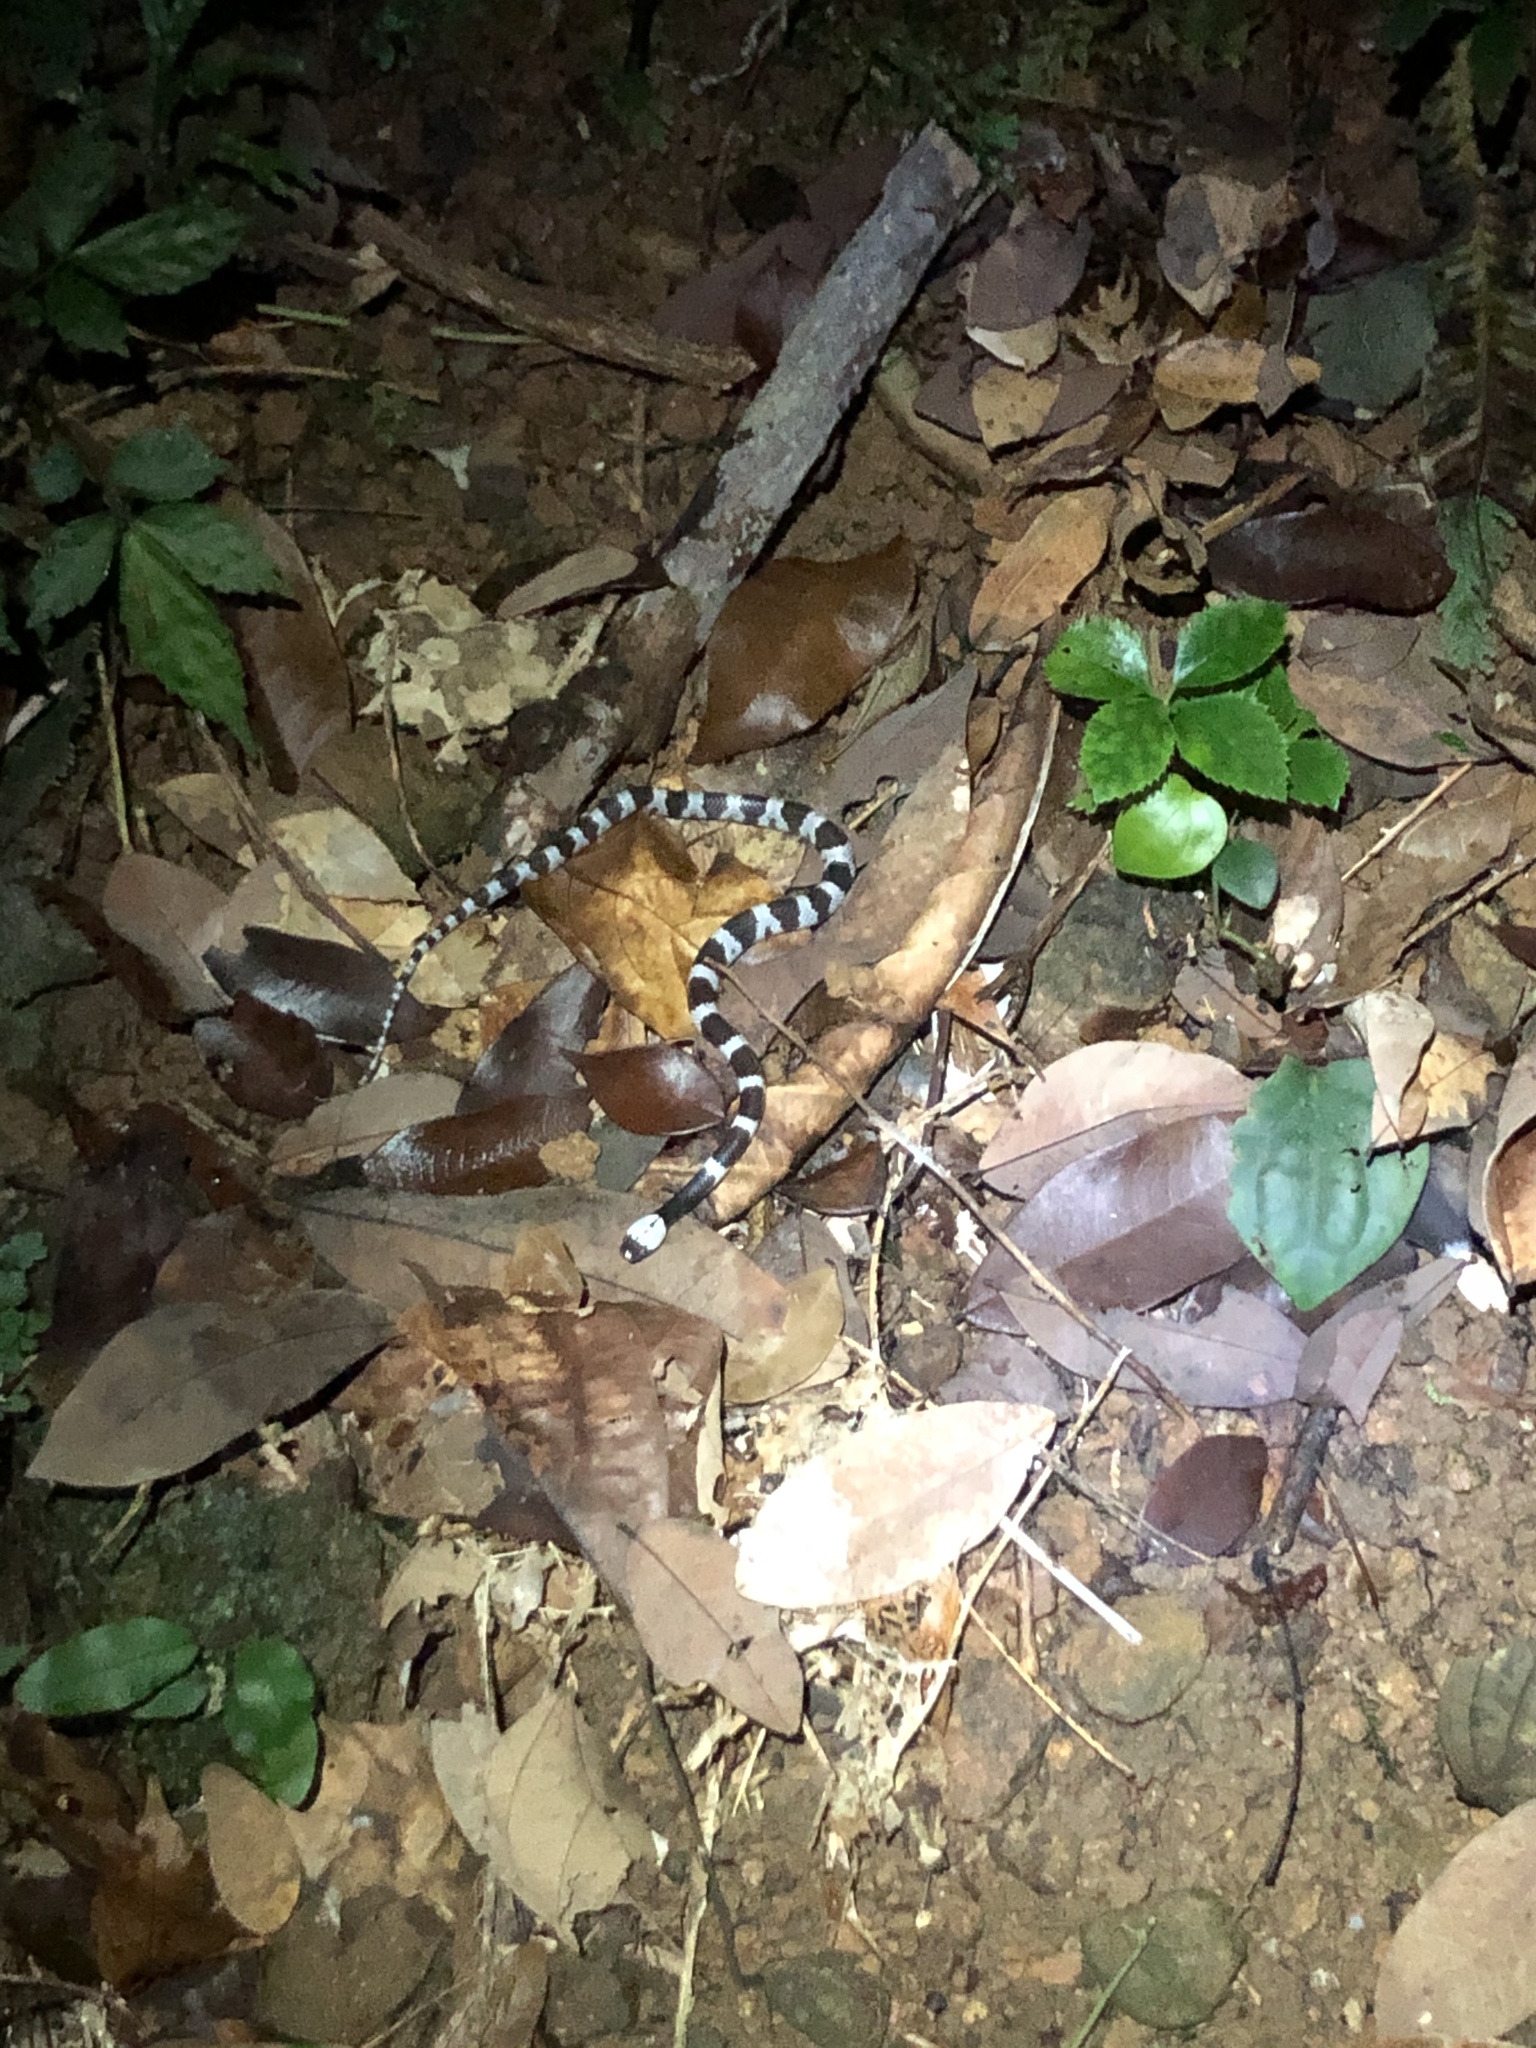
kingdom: Animalia
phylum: Chordata
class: Squamata
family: Colubridae
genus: Lycodon
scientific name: Lycodon futsingensis
